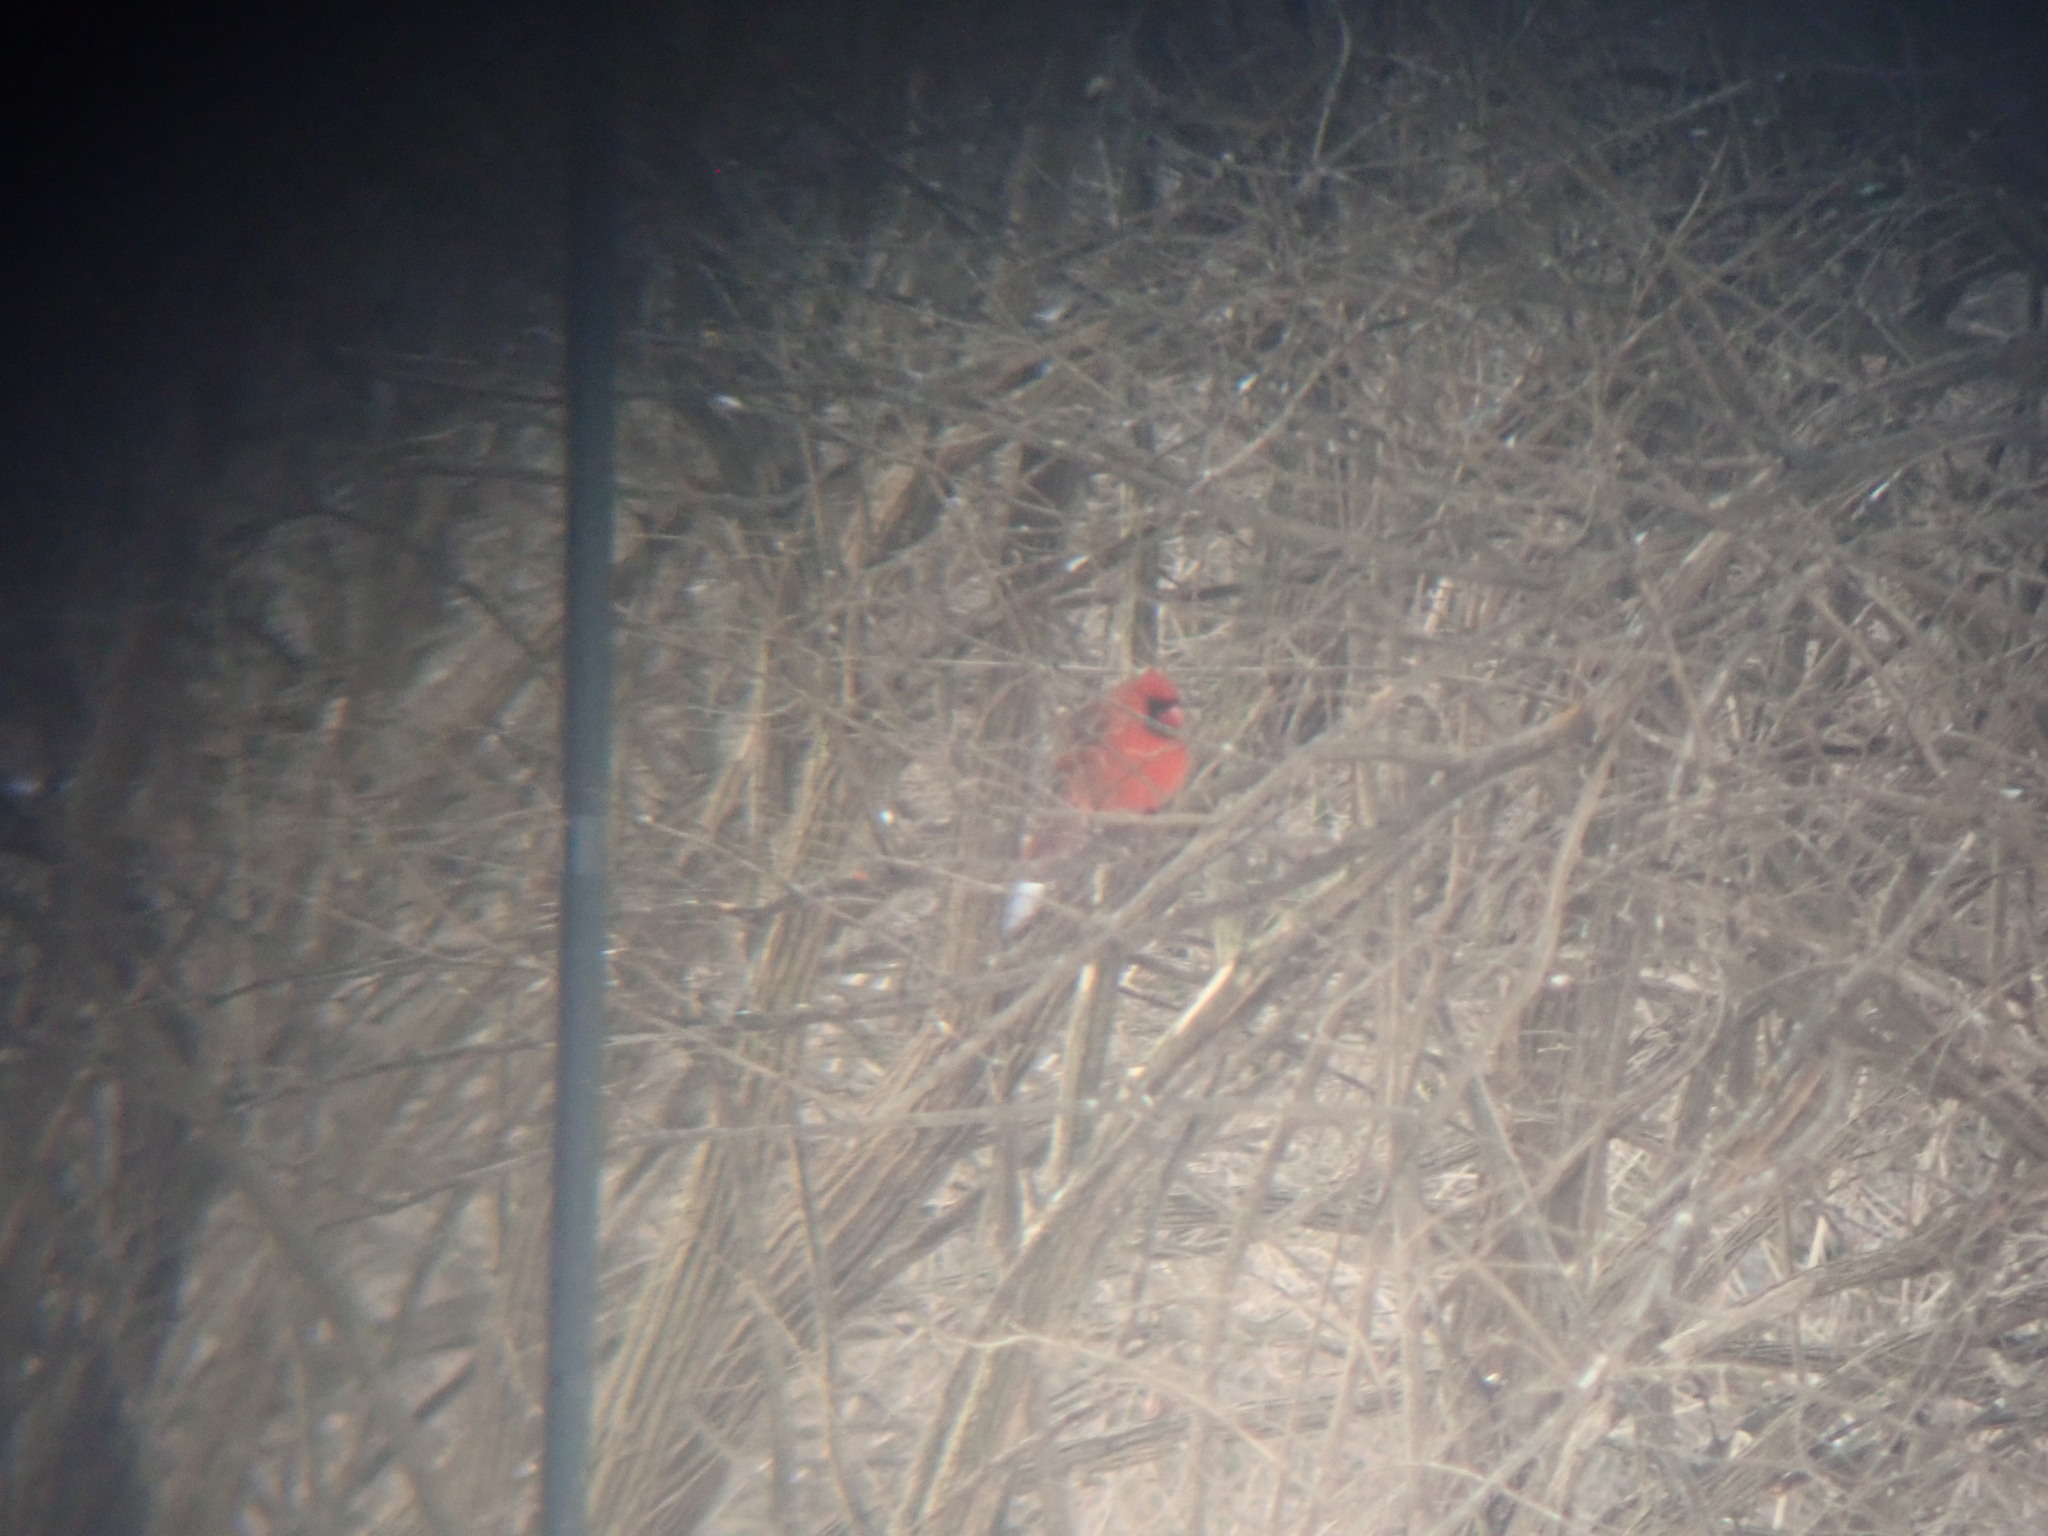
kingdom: Animalia
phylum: Chordata
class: Aves
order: Passeriformes
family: Cardinalidae
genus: Cardinalis
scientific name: Cardinalis cardinalis
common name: Northern cardinal
